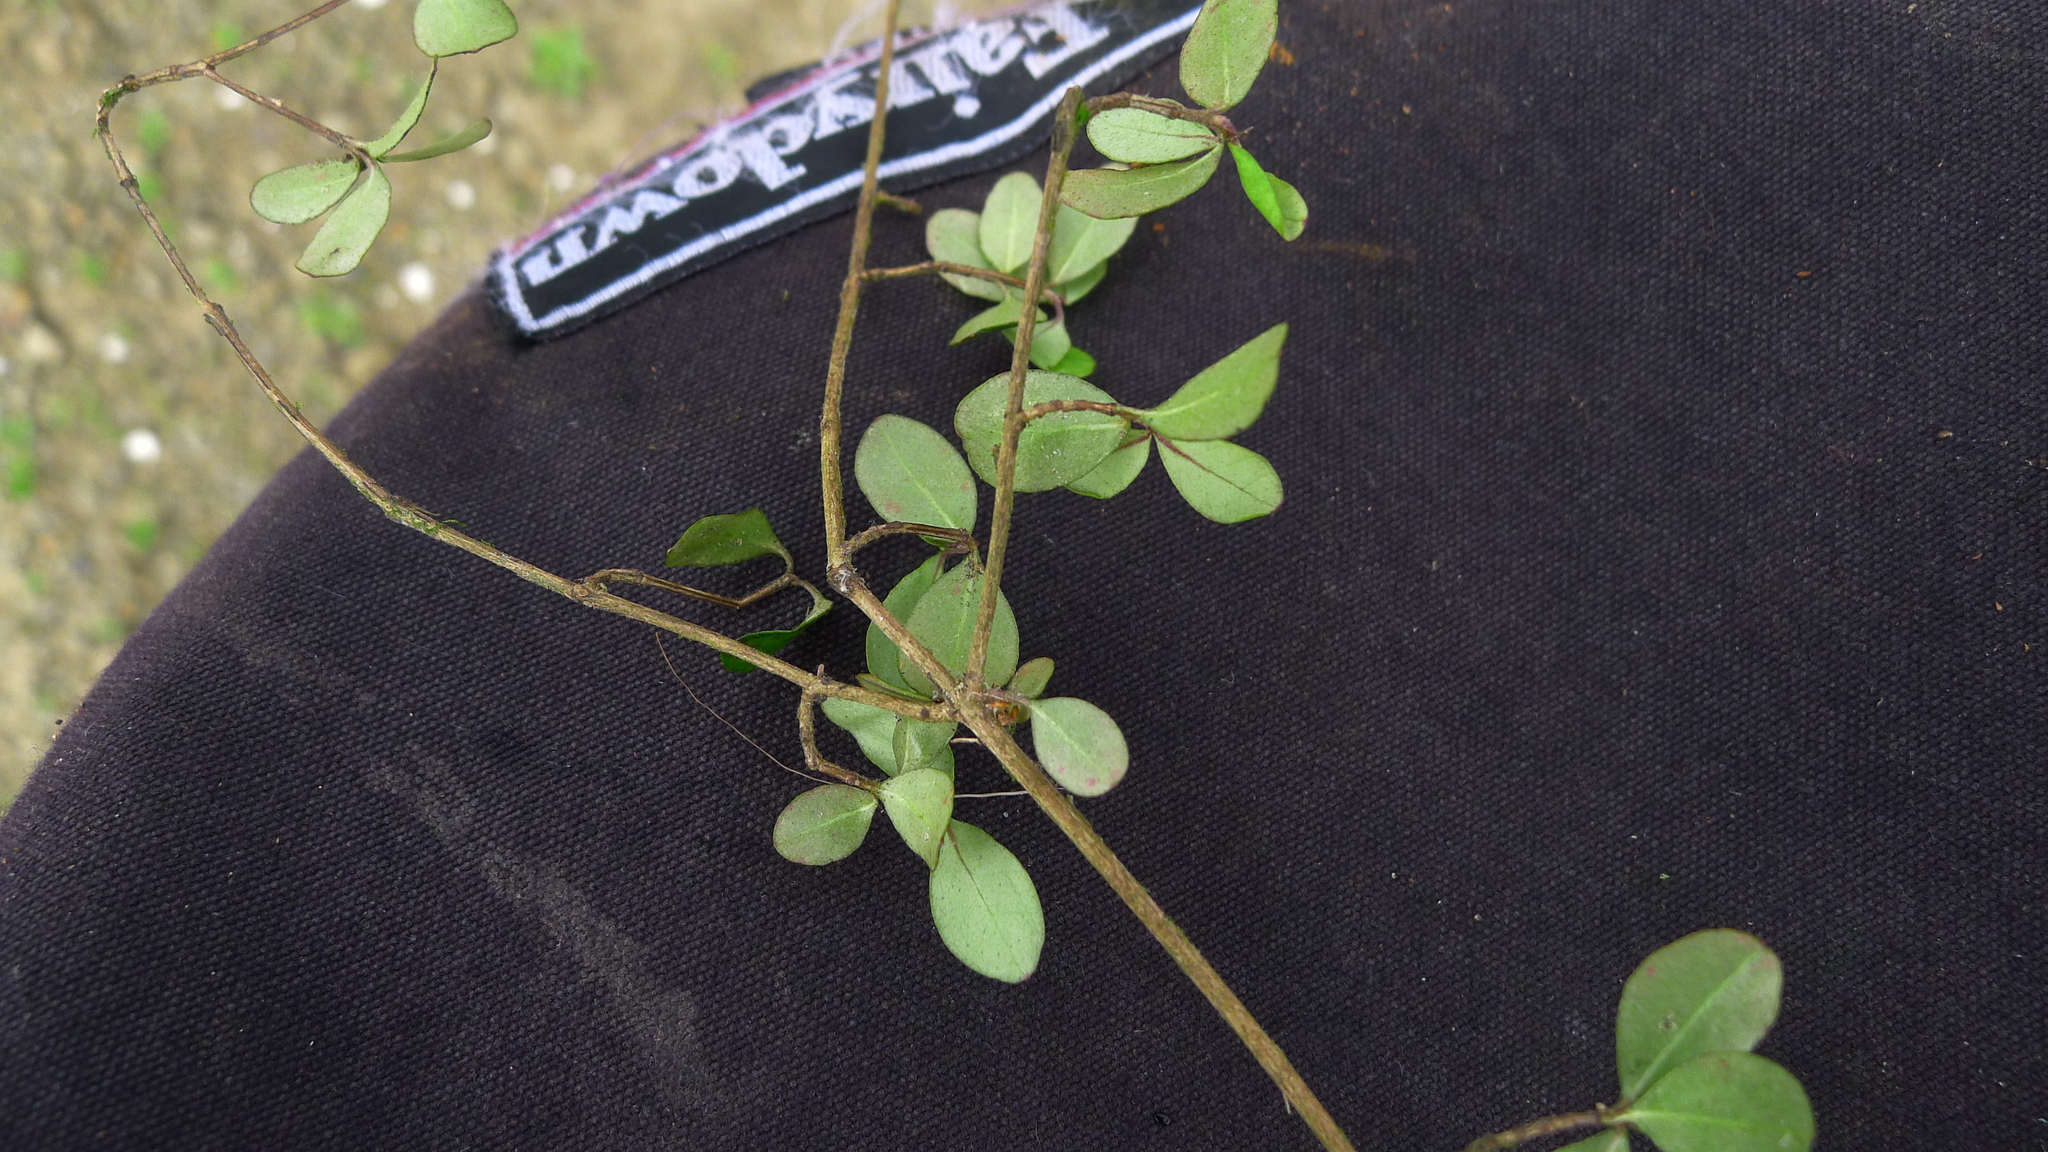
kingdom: Plantae
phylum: Tracheophyta
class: Magnoliopsida
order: Myrtales
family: Myrtaceae
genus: Neomyrtus
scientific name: Neomyrtus pedunculata
